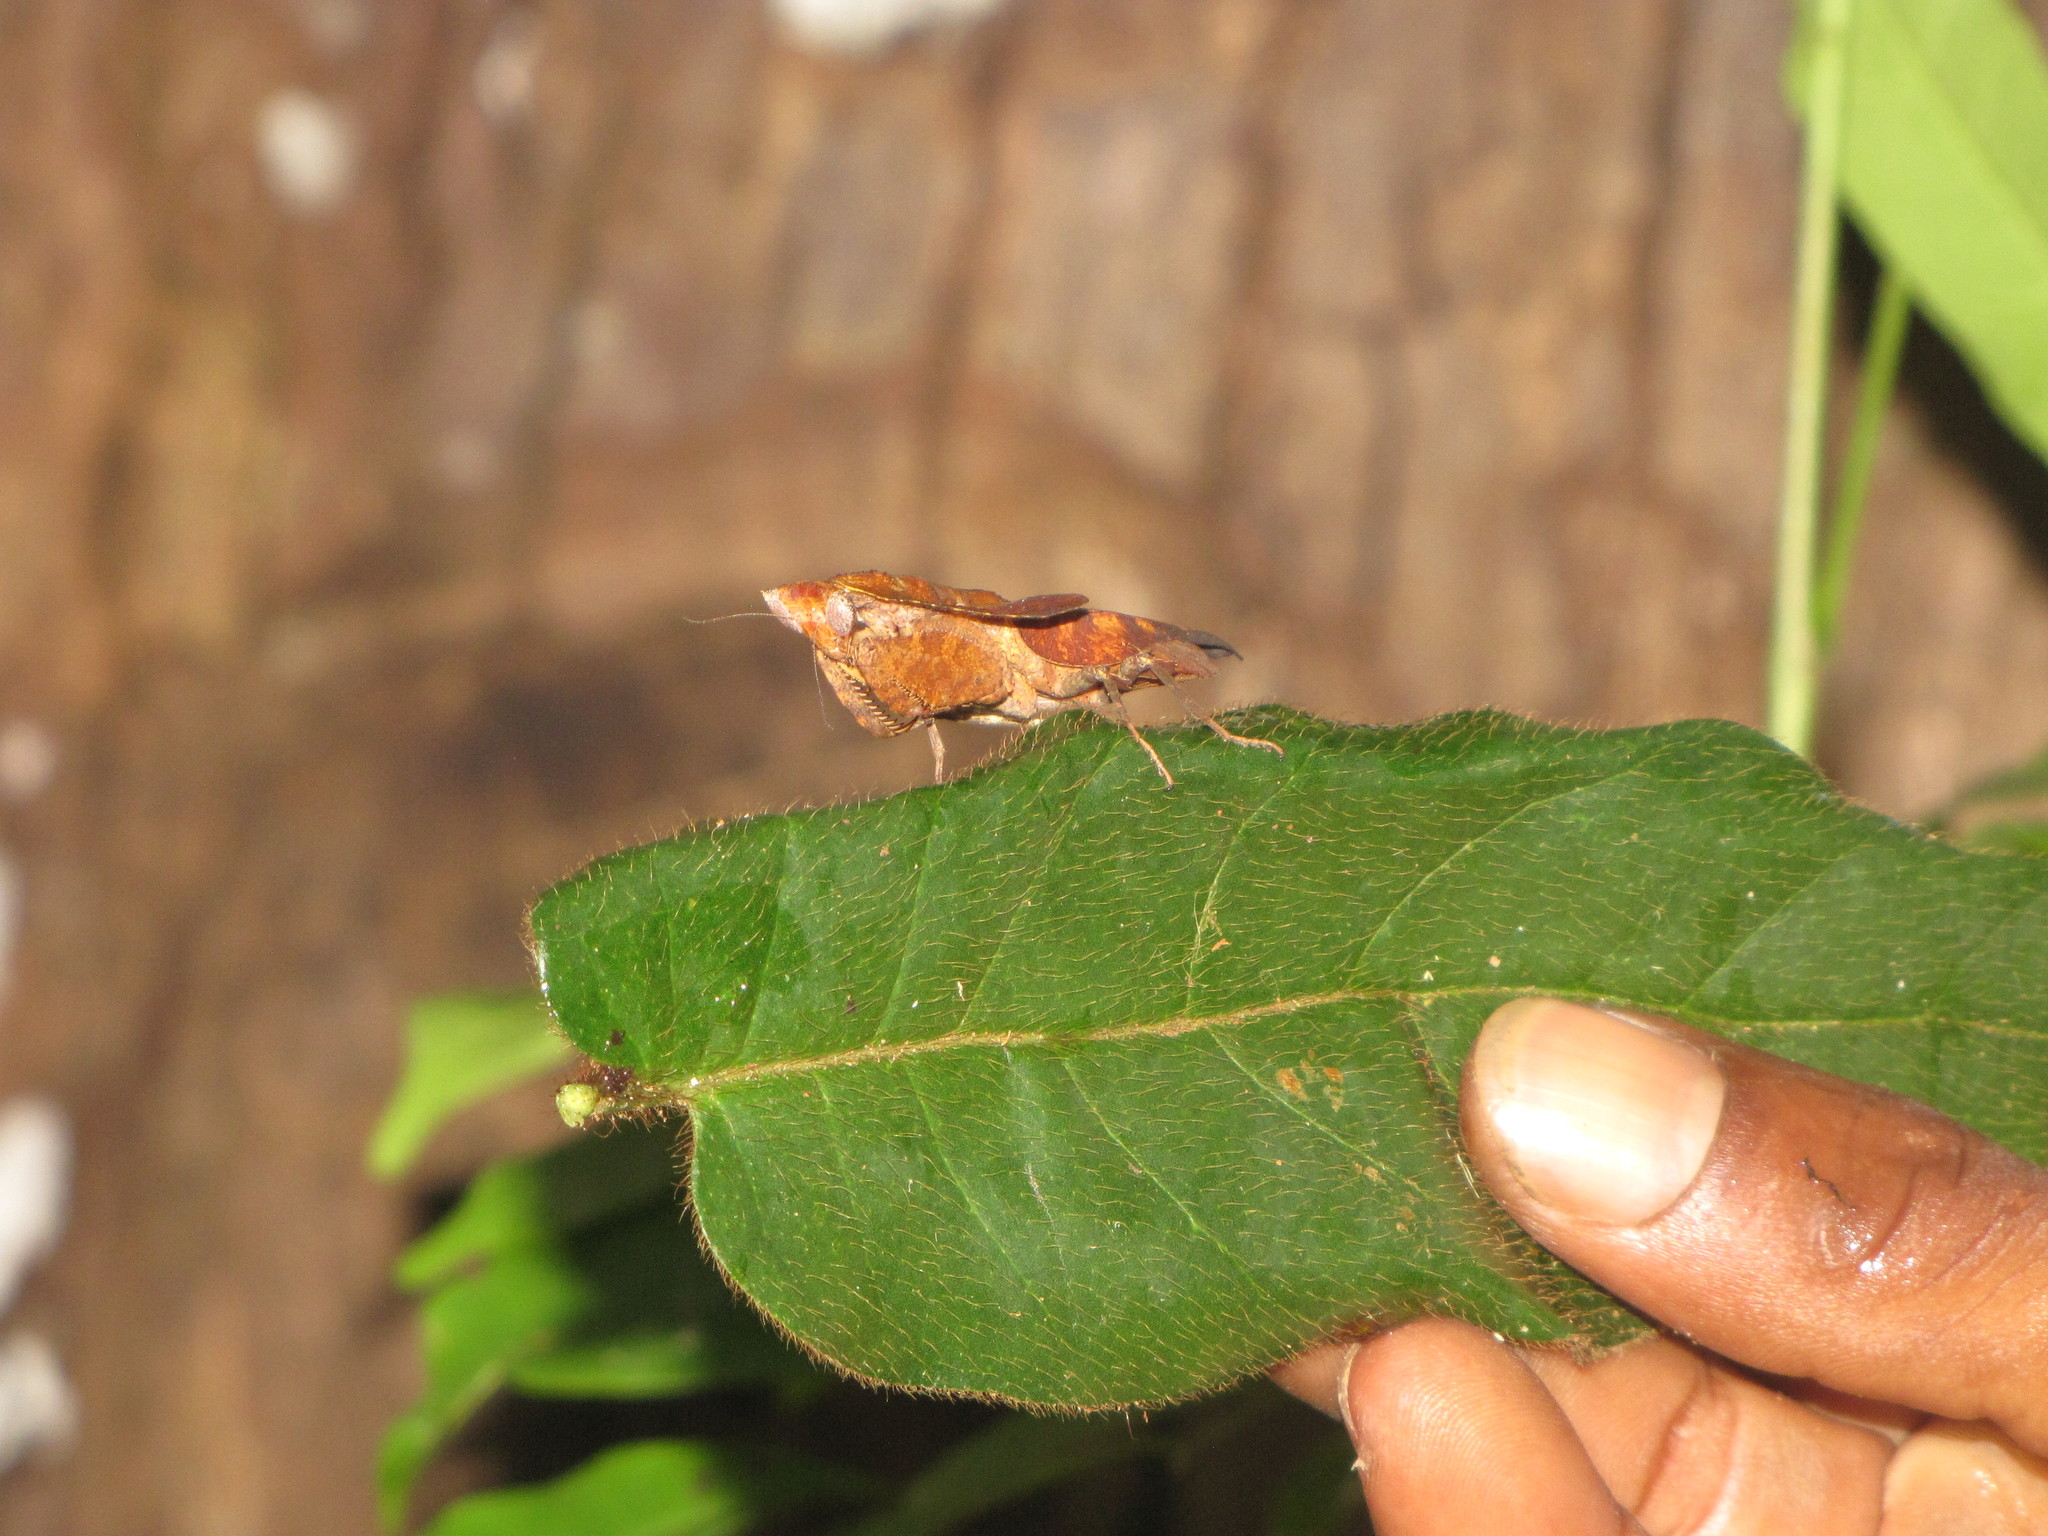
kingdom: Animalia
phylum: Arthropoda
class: Insecta
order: Mantodea
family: Majangidae
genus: Brancsikia
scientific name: Brancsikia freyi
